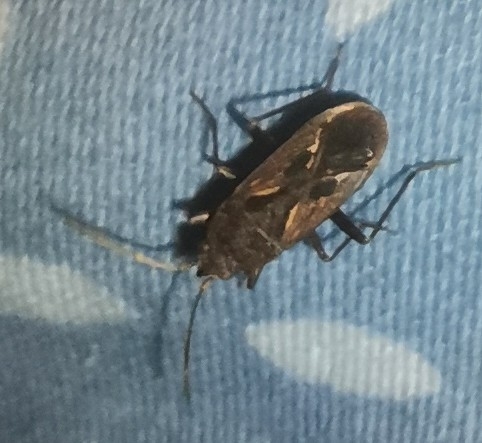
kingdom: Animalia
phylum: Arthropoda
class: Insecta
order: Hemiptera
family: Rhyparochromidae
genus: Rhyparochromus
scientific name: Rhyparochromus pini
